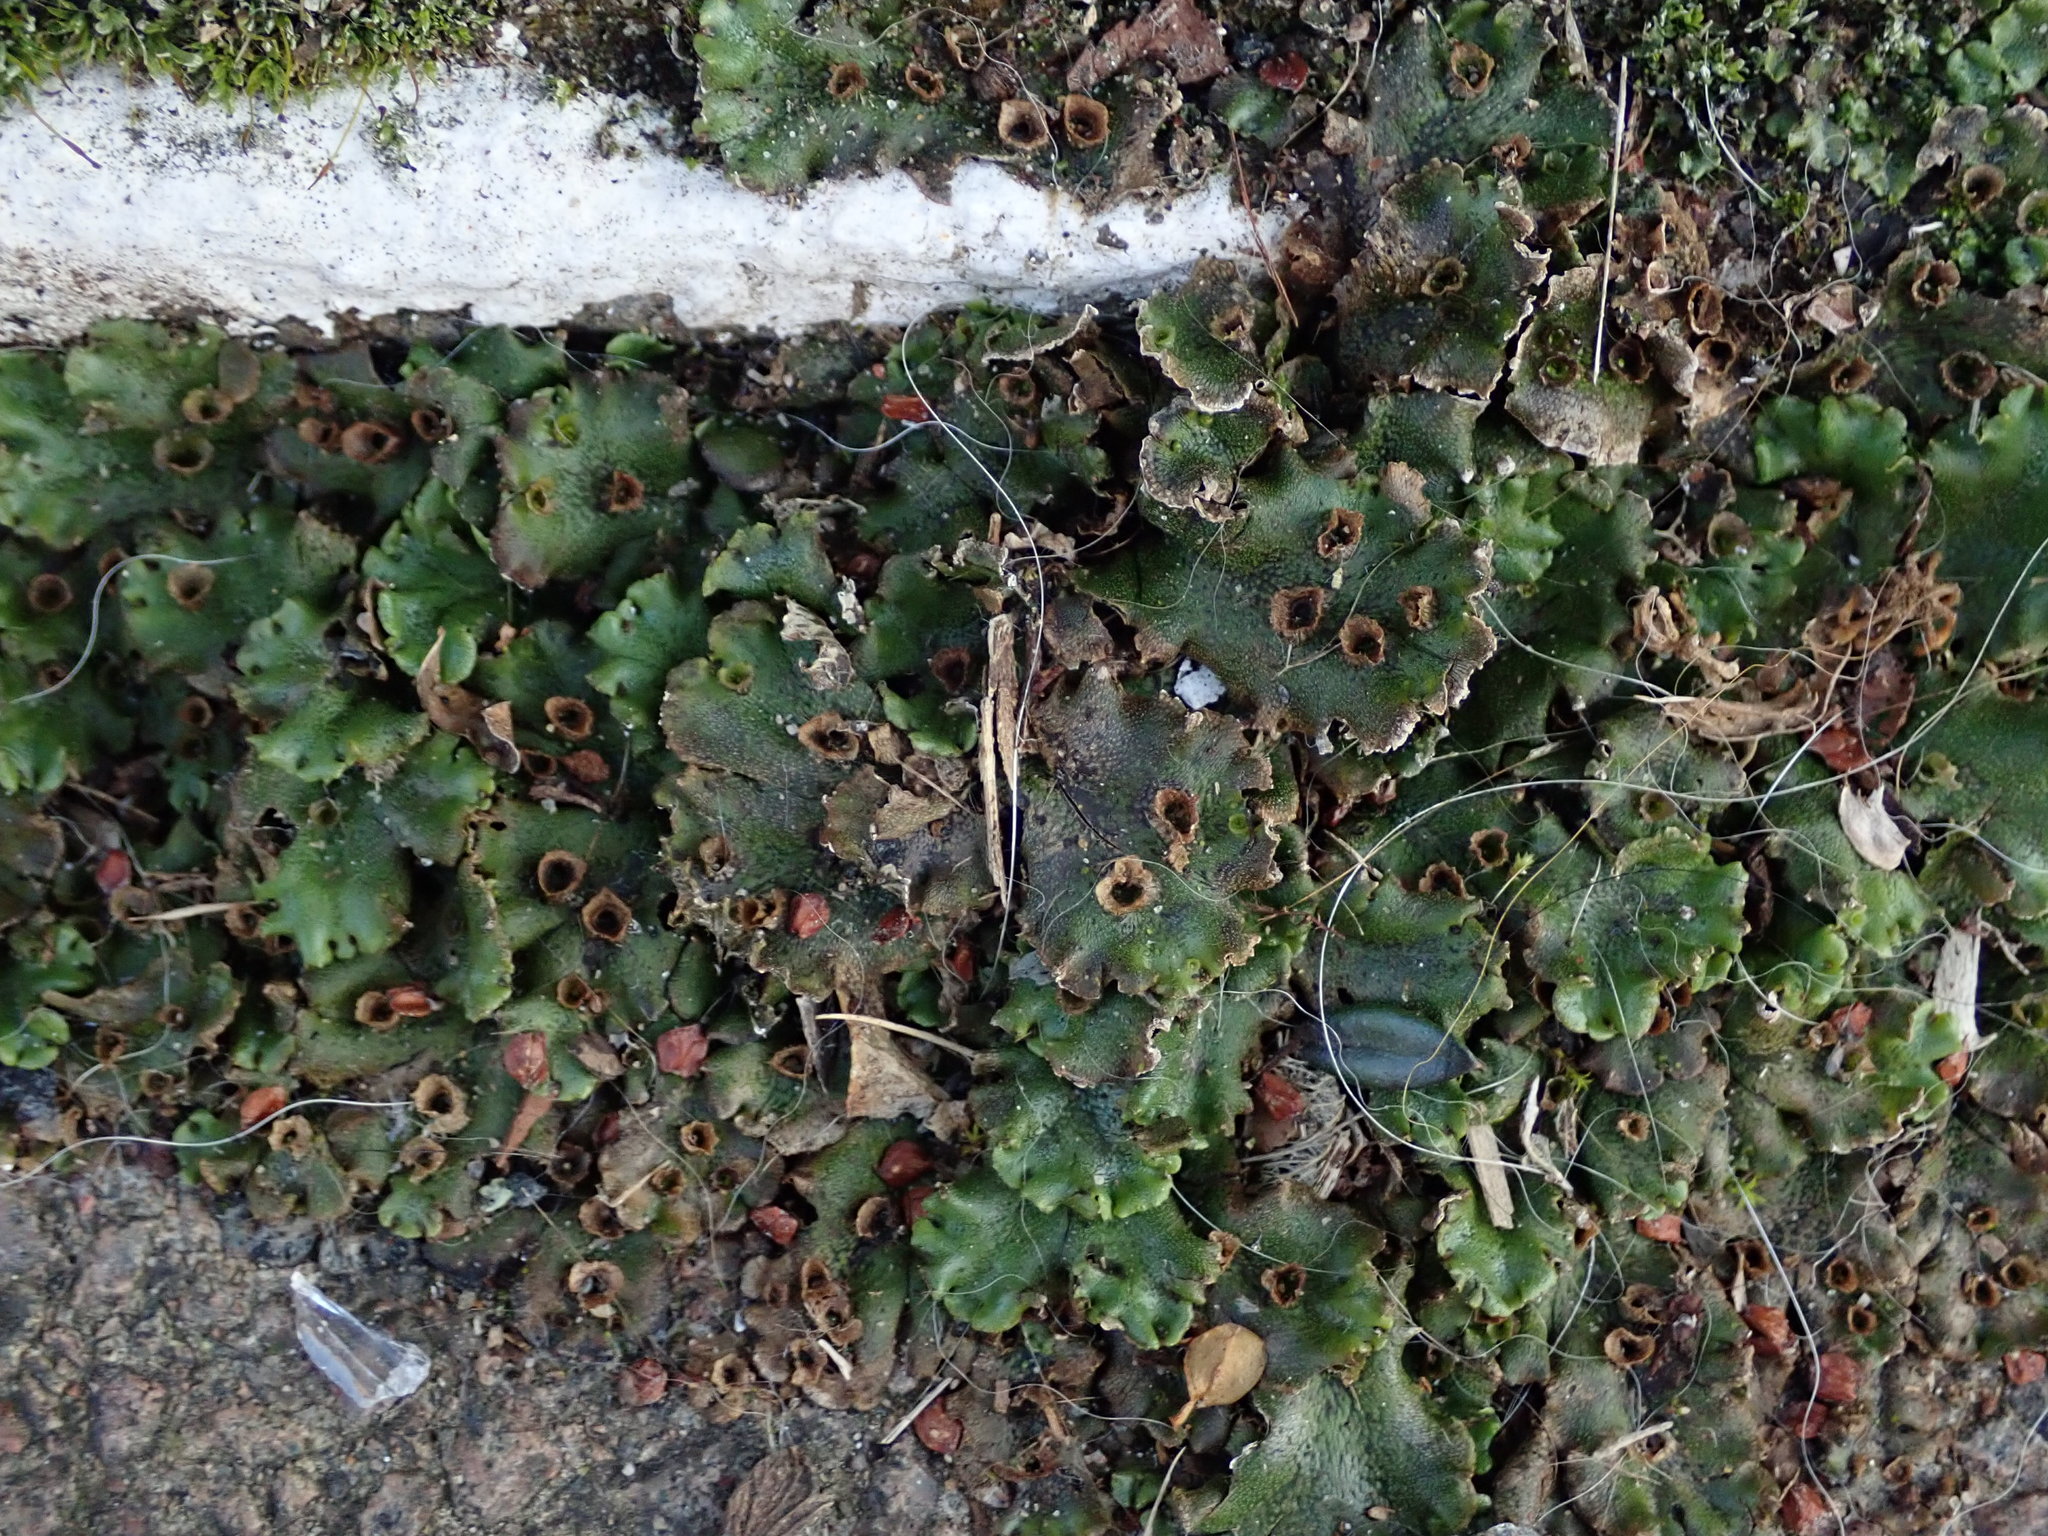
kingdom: Plantae
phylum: Marchantiophyta
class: Marchantiopsida
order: Marchantiales
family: Marchantiaceae
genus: Marchantia
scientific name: Marchantia polymorpha
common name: Common liverwort
